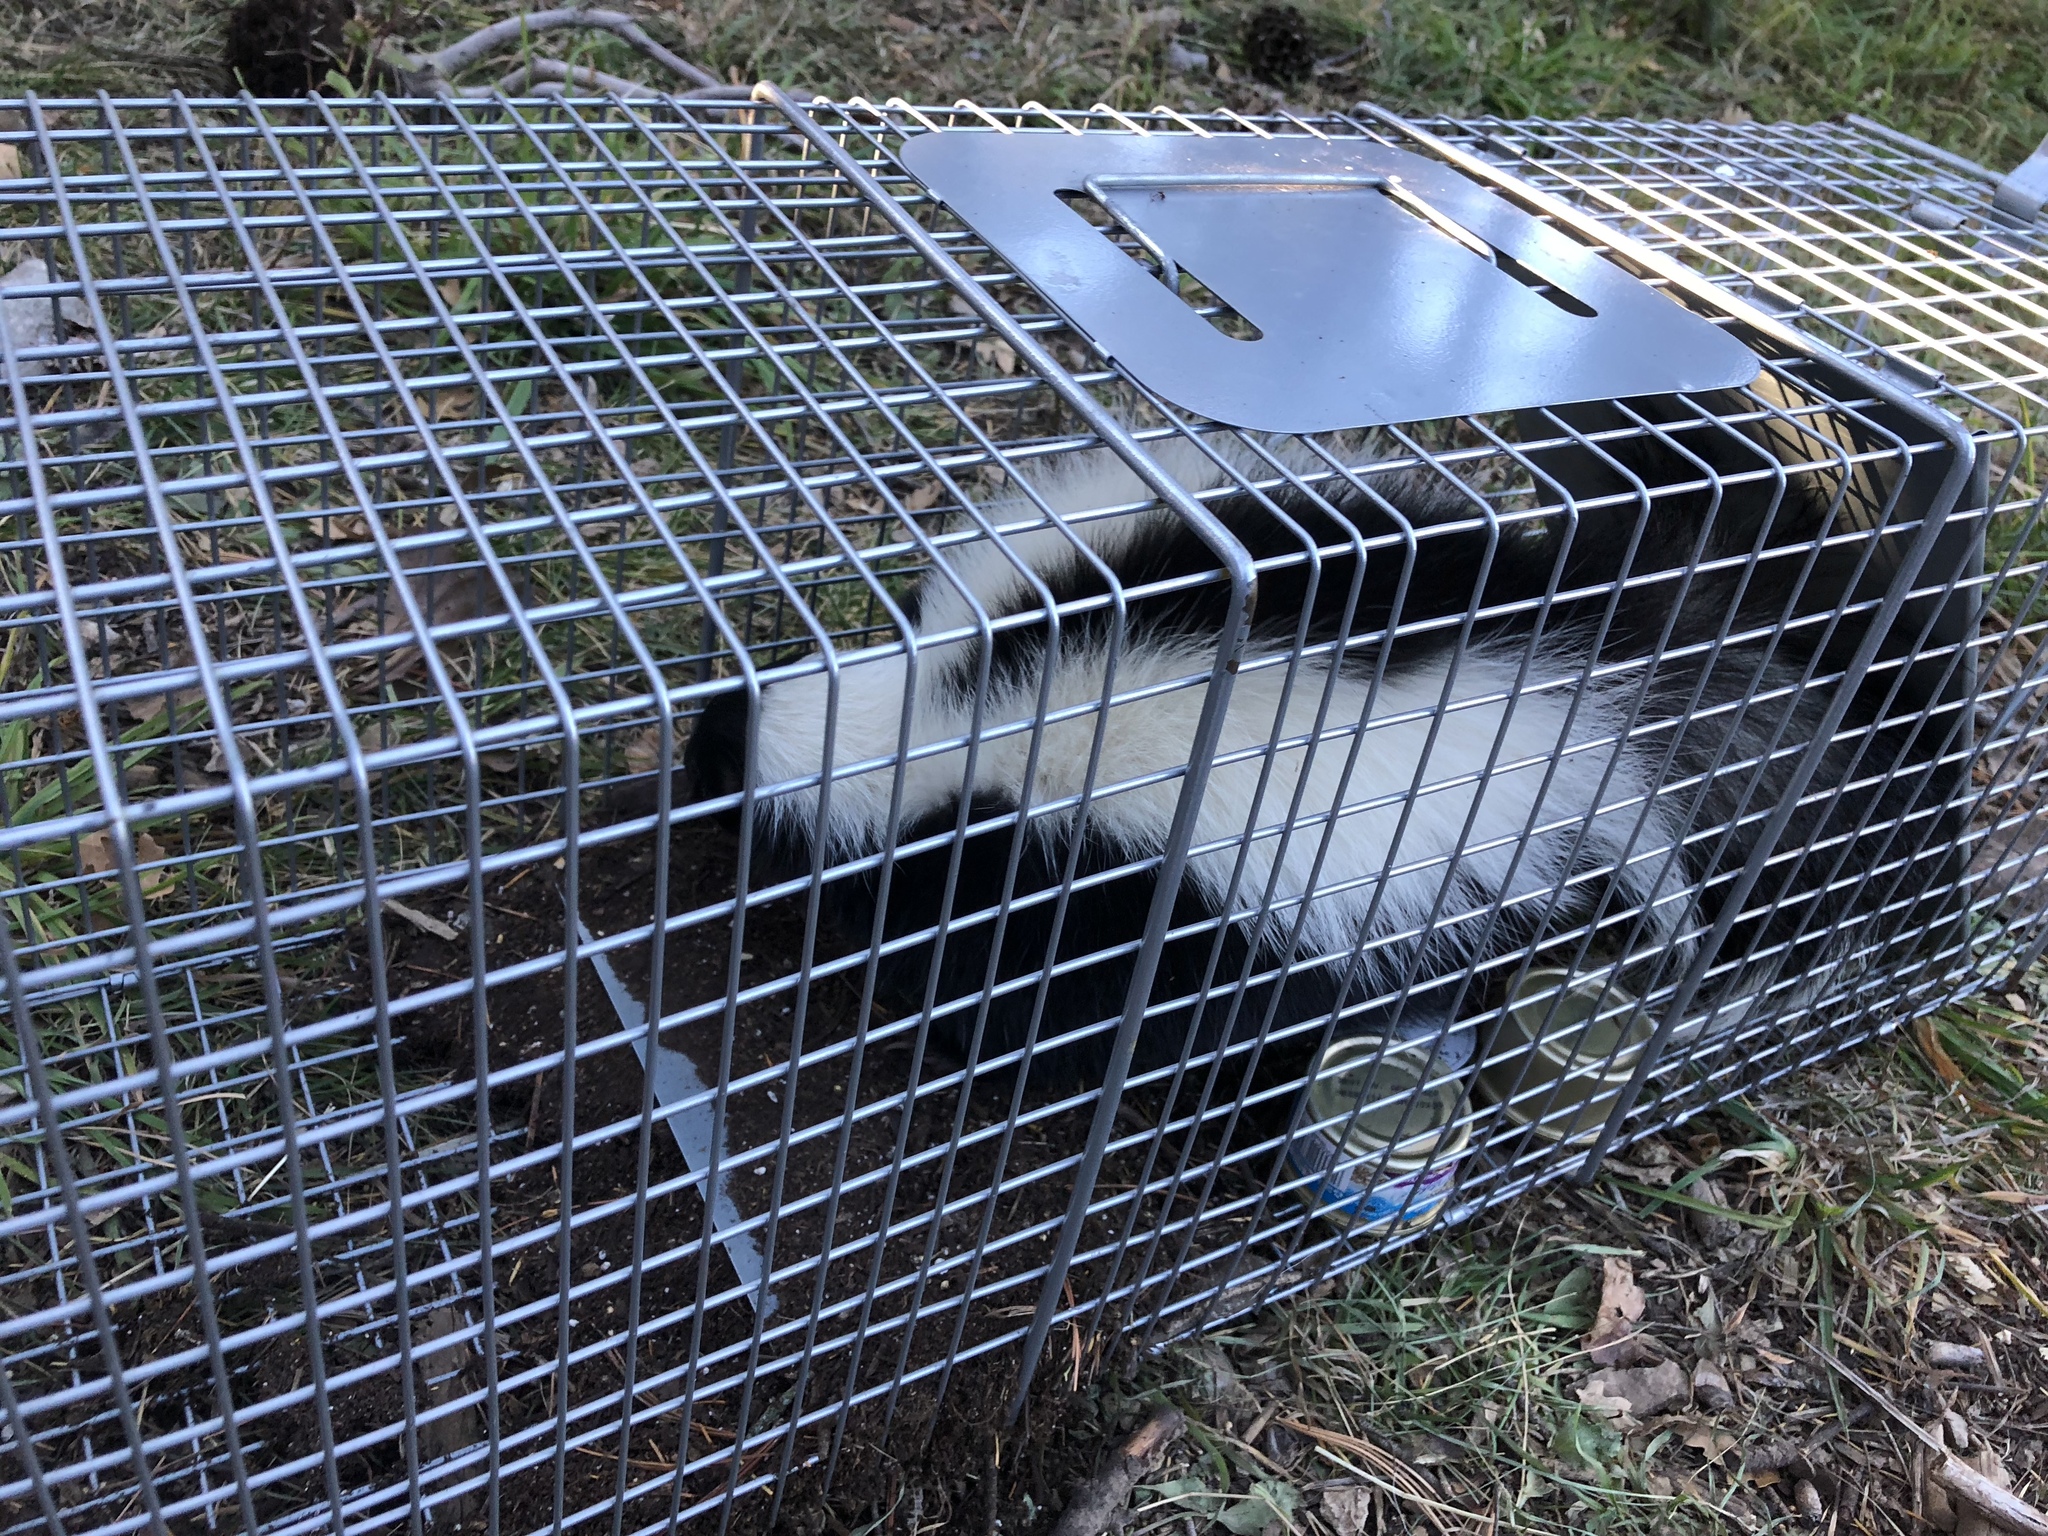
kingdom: Animalia
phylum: Chordata
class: Mammalia
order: Carnivora
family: Mephitidae
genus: Mephitis
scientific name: Mephitis mephitis
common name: Striped skunk
